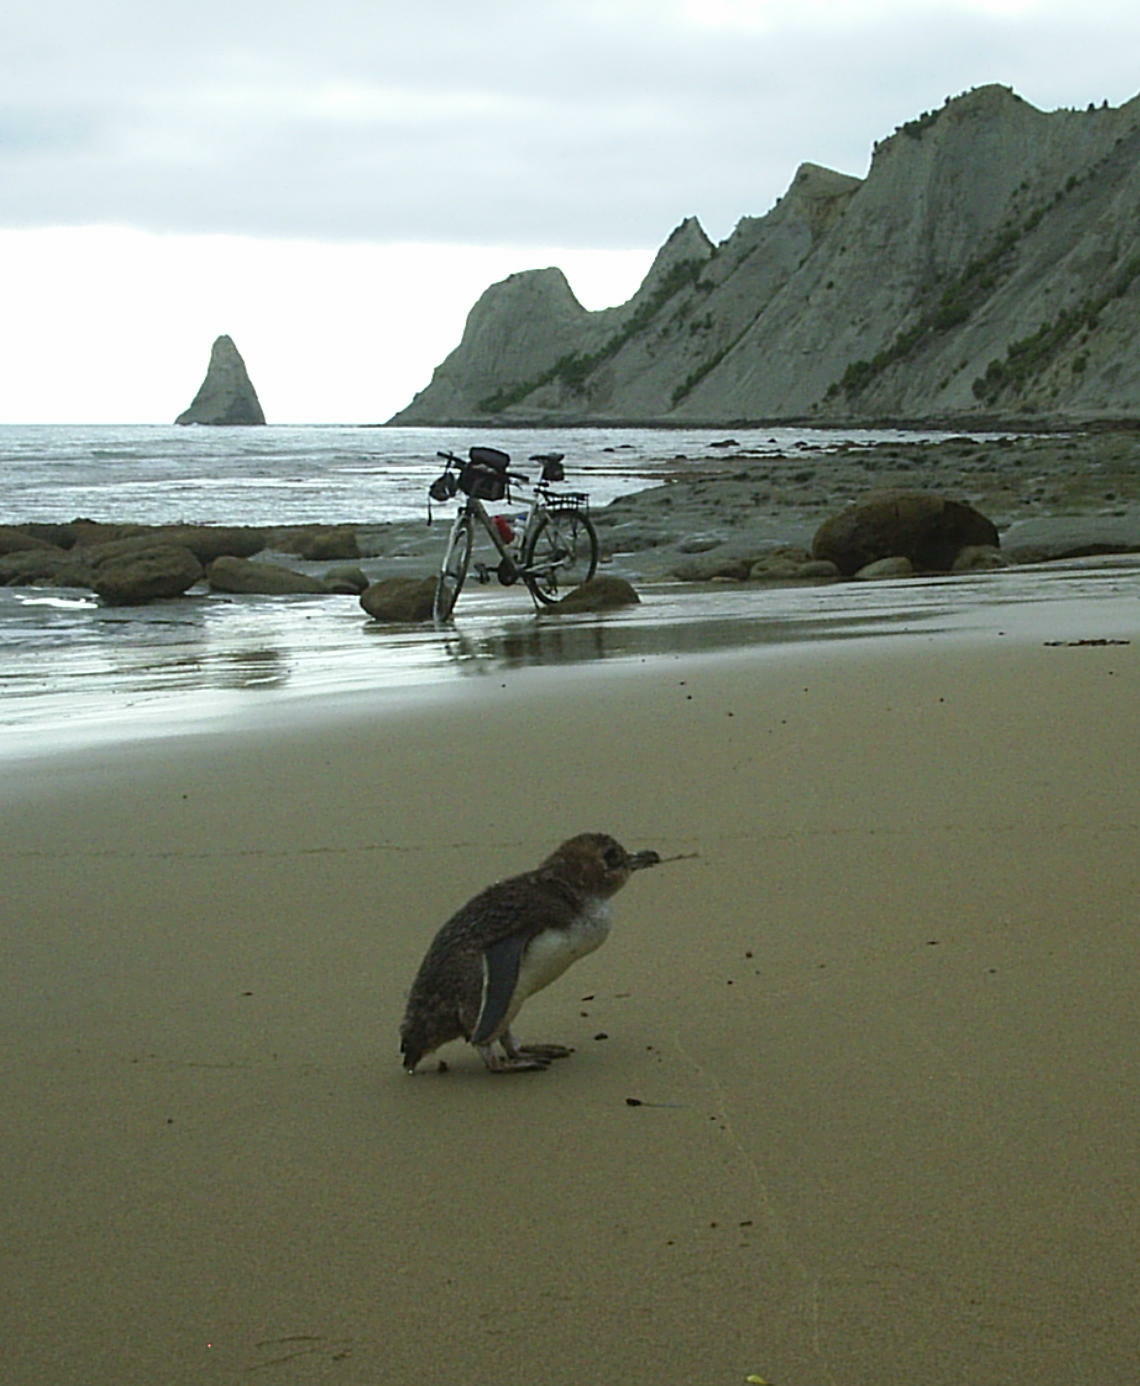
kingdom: Animalia
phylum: Chordata
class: Aves
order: Sphenisciformes
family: Spheniscidae
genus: Eudyptula
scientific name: Eudyptula minor
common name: Little penguin
